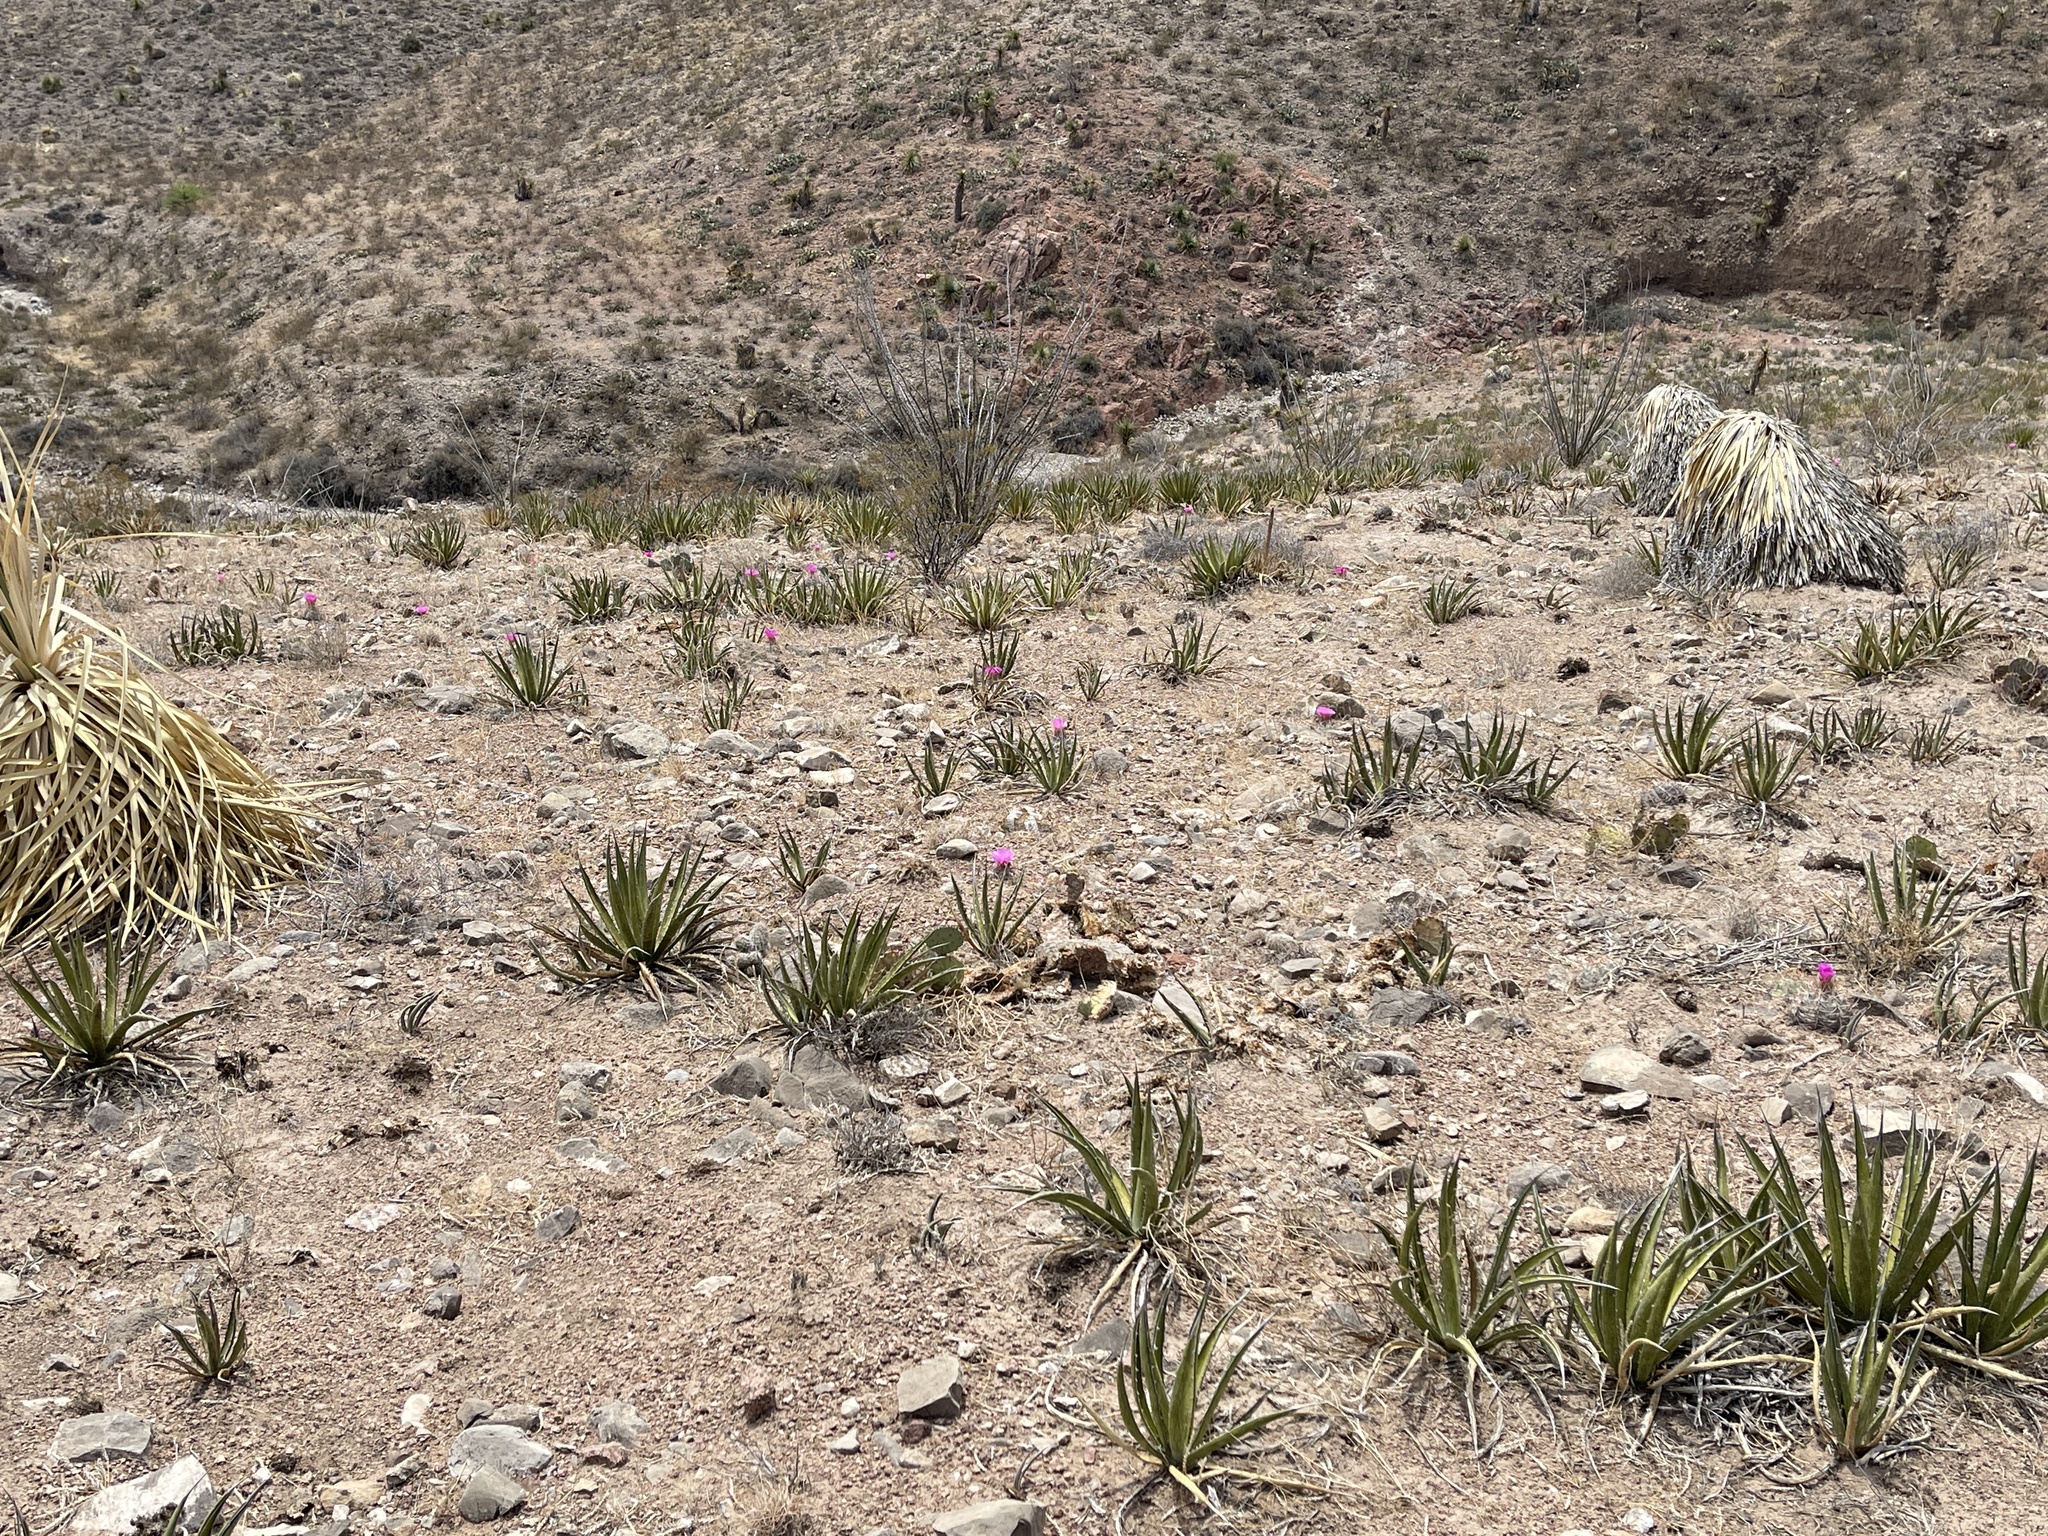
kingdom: Plantae
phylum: Tracheophyta
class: Magnoliopsida
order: Caryophyllales
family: Cactaceae
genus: Echinocactus
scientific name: Echinocactus horizonthalonius
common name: Devilshead
